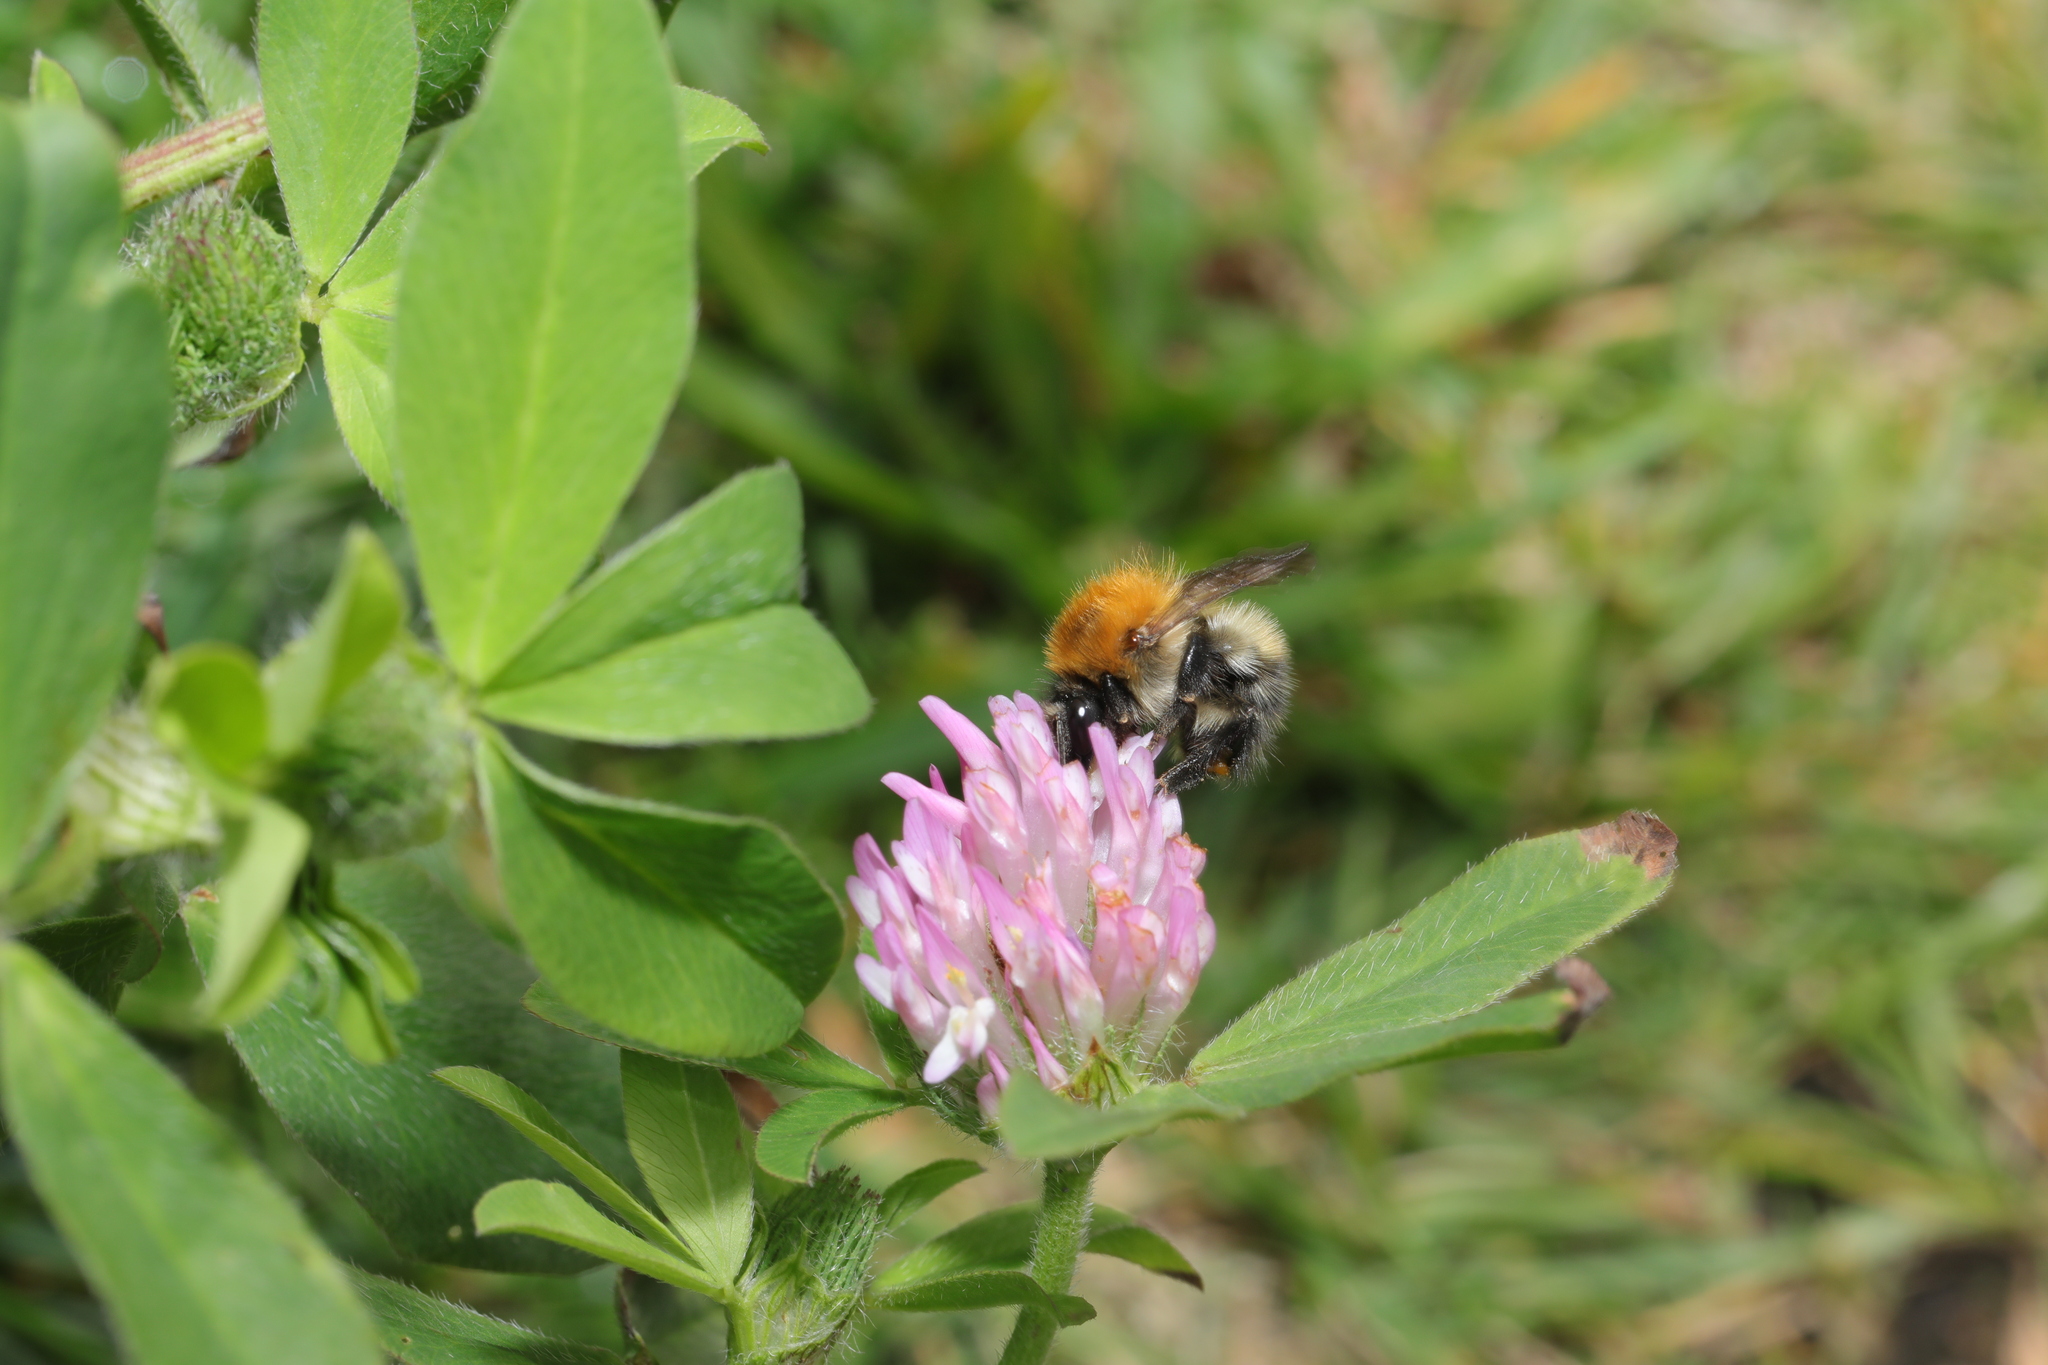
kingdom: Animalia
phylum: Arthropoda
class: Insecta
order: Hymenoptera
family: Apidae
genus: Bombus
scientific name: Bombus pascuorum
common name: Common carder bee
